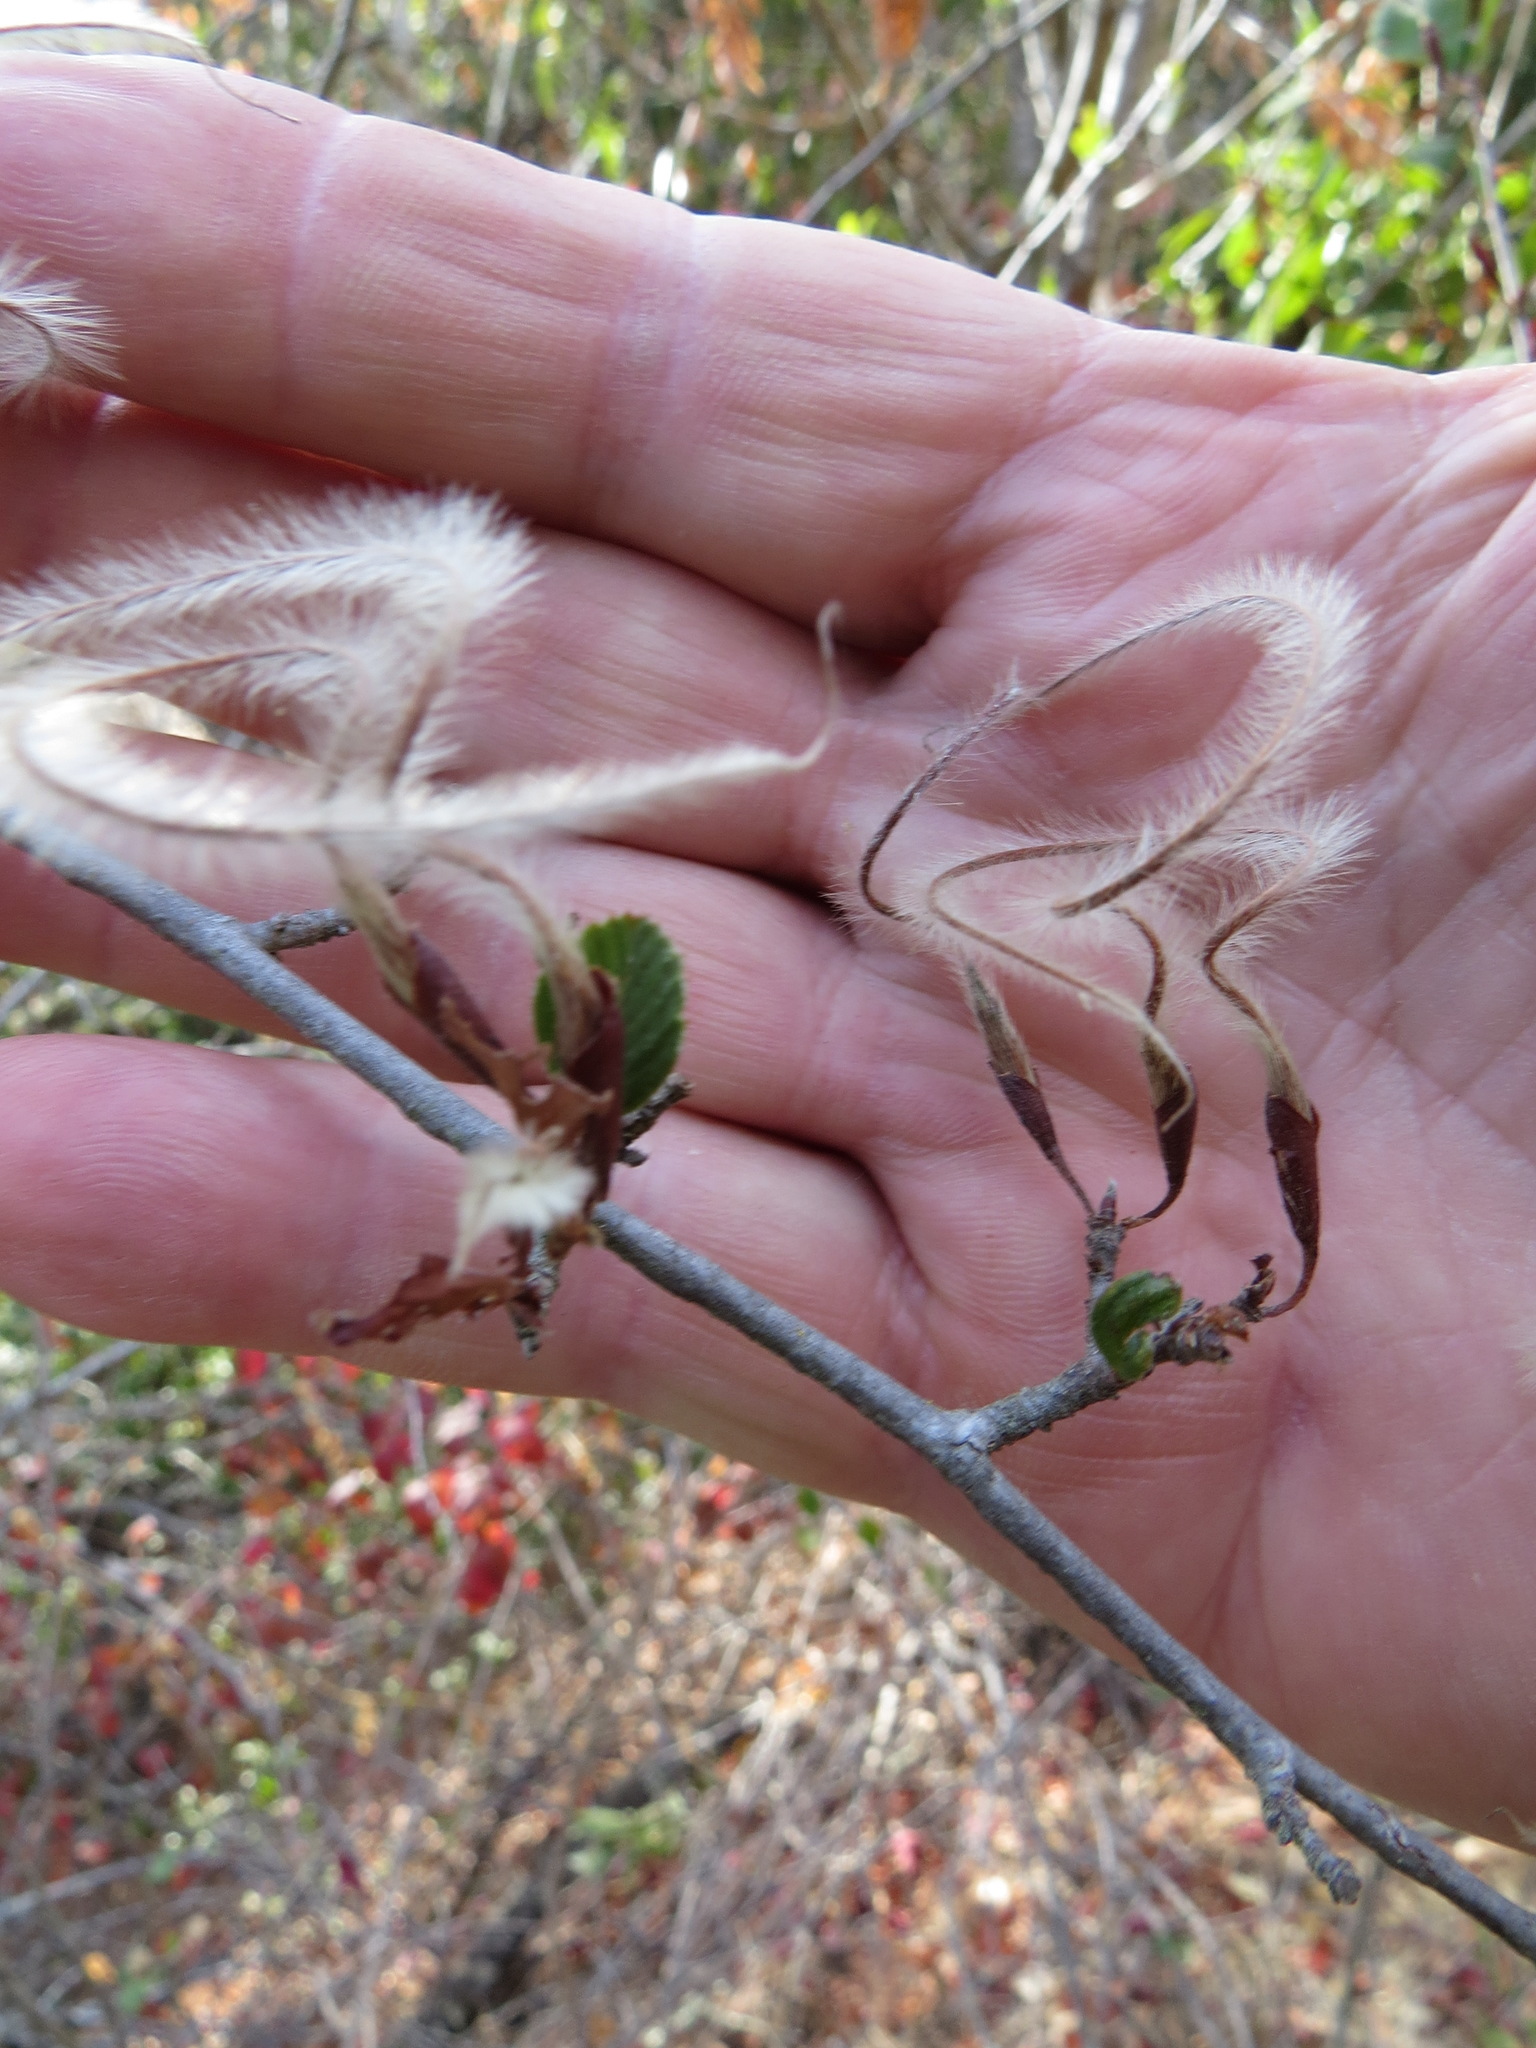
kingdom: Plantae
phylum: Tracheophyta
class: Magnoliopsida
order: Rosales
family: Rosaceae
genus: Cercocarpus
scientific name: Cercocarpus betuloides
